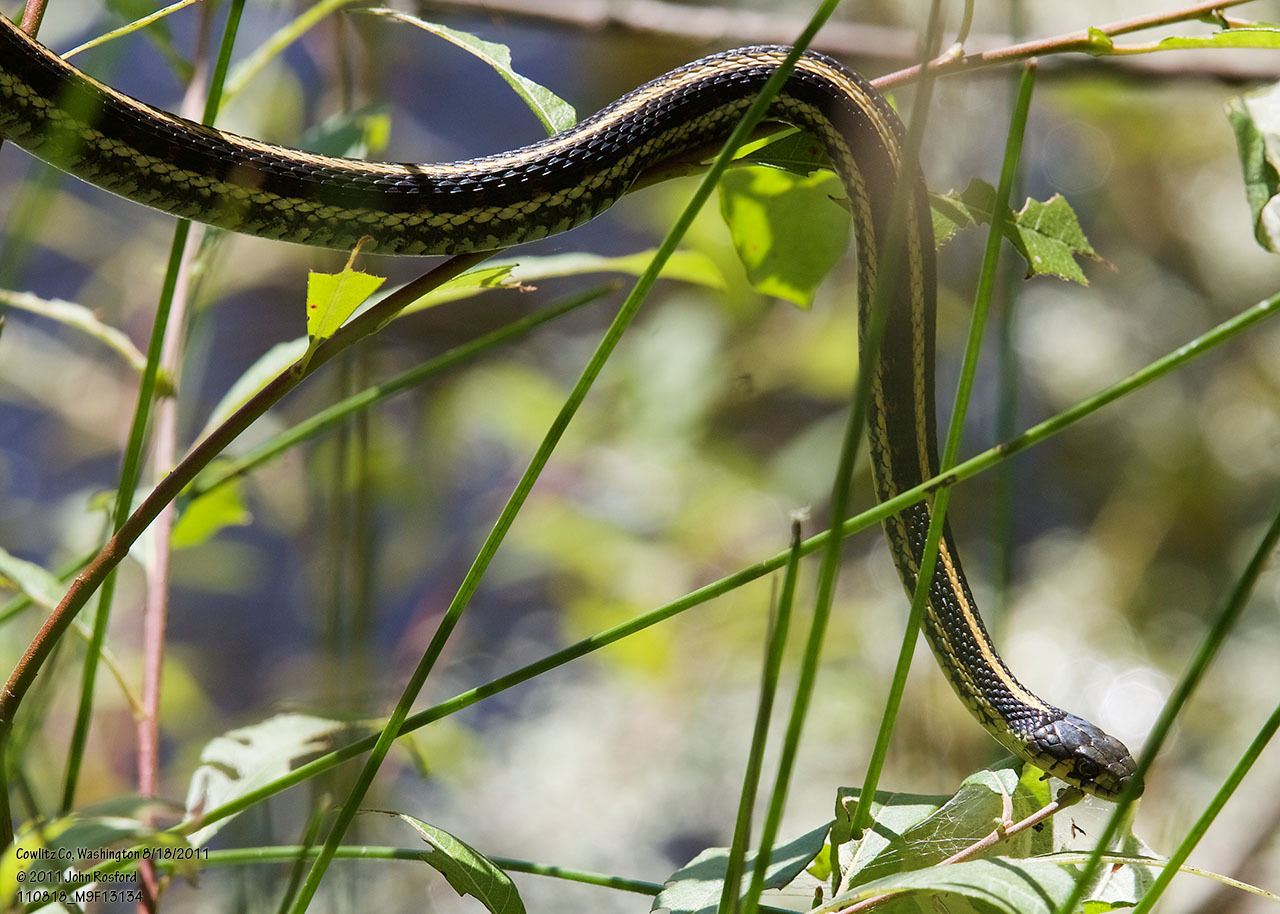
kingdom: Animalia
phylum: Chordata
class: Squamata
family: Colubridae
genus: Thamnophis
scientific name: Thamnophis sirtalis
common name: Common garter snake
